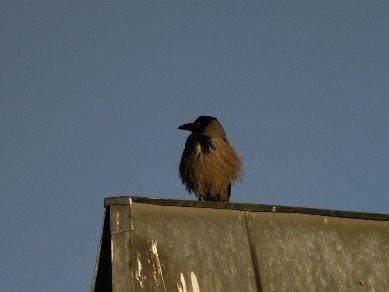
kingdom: Animalia
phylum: Chordata
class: Aves
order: Passeriformes
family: Corvidae
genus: Corvus
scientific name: Corvus cornix
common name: Hooded crow
